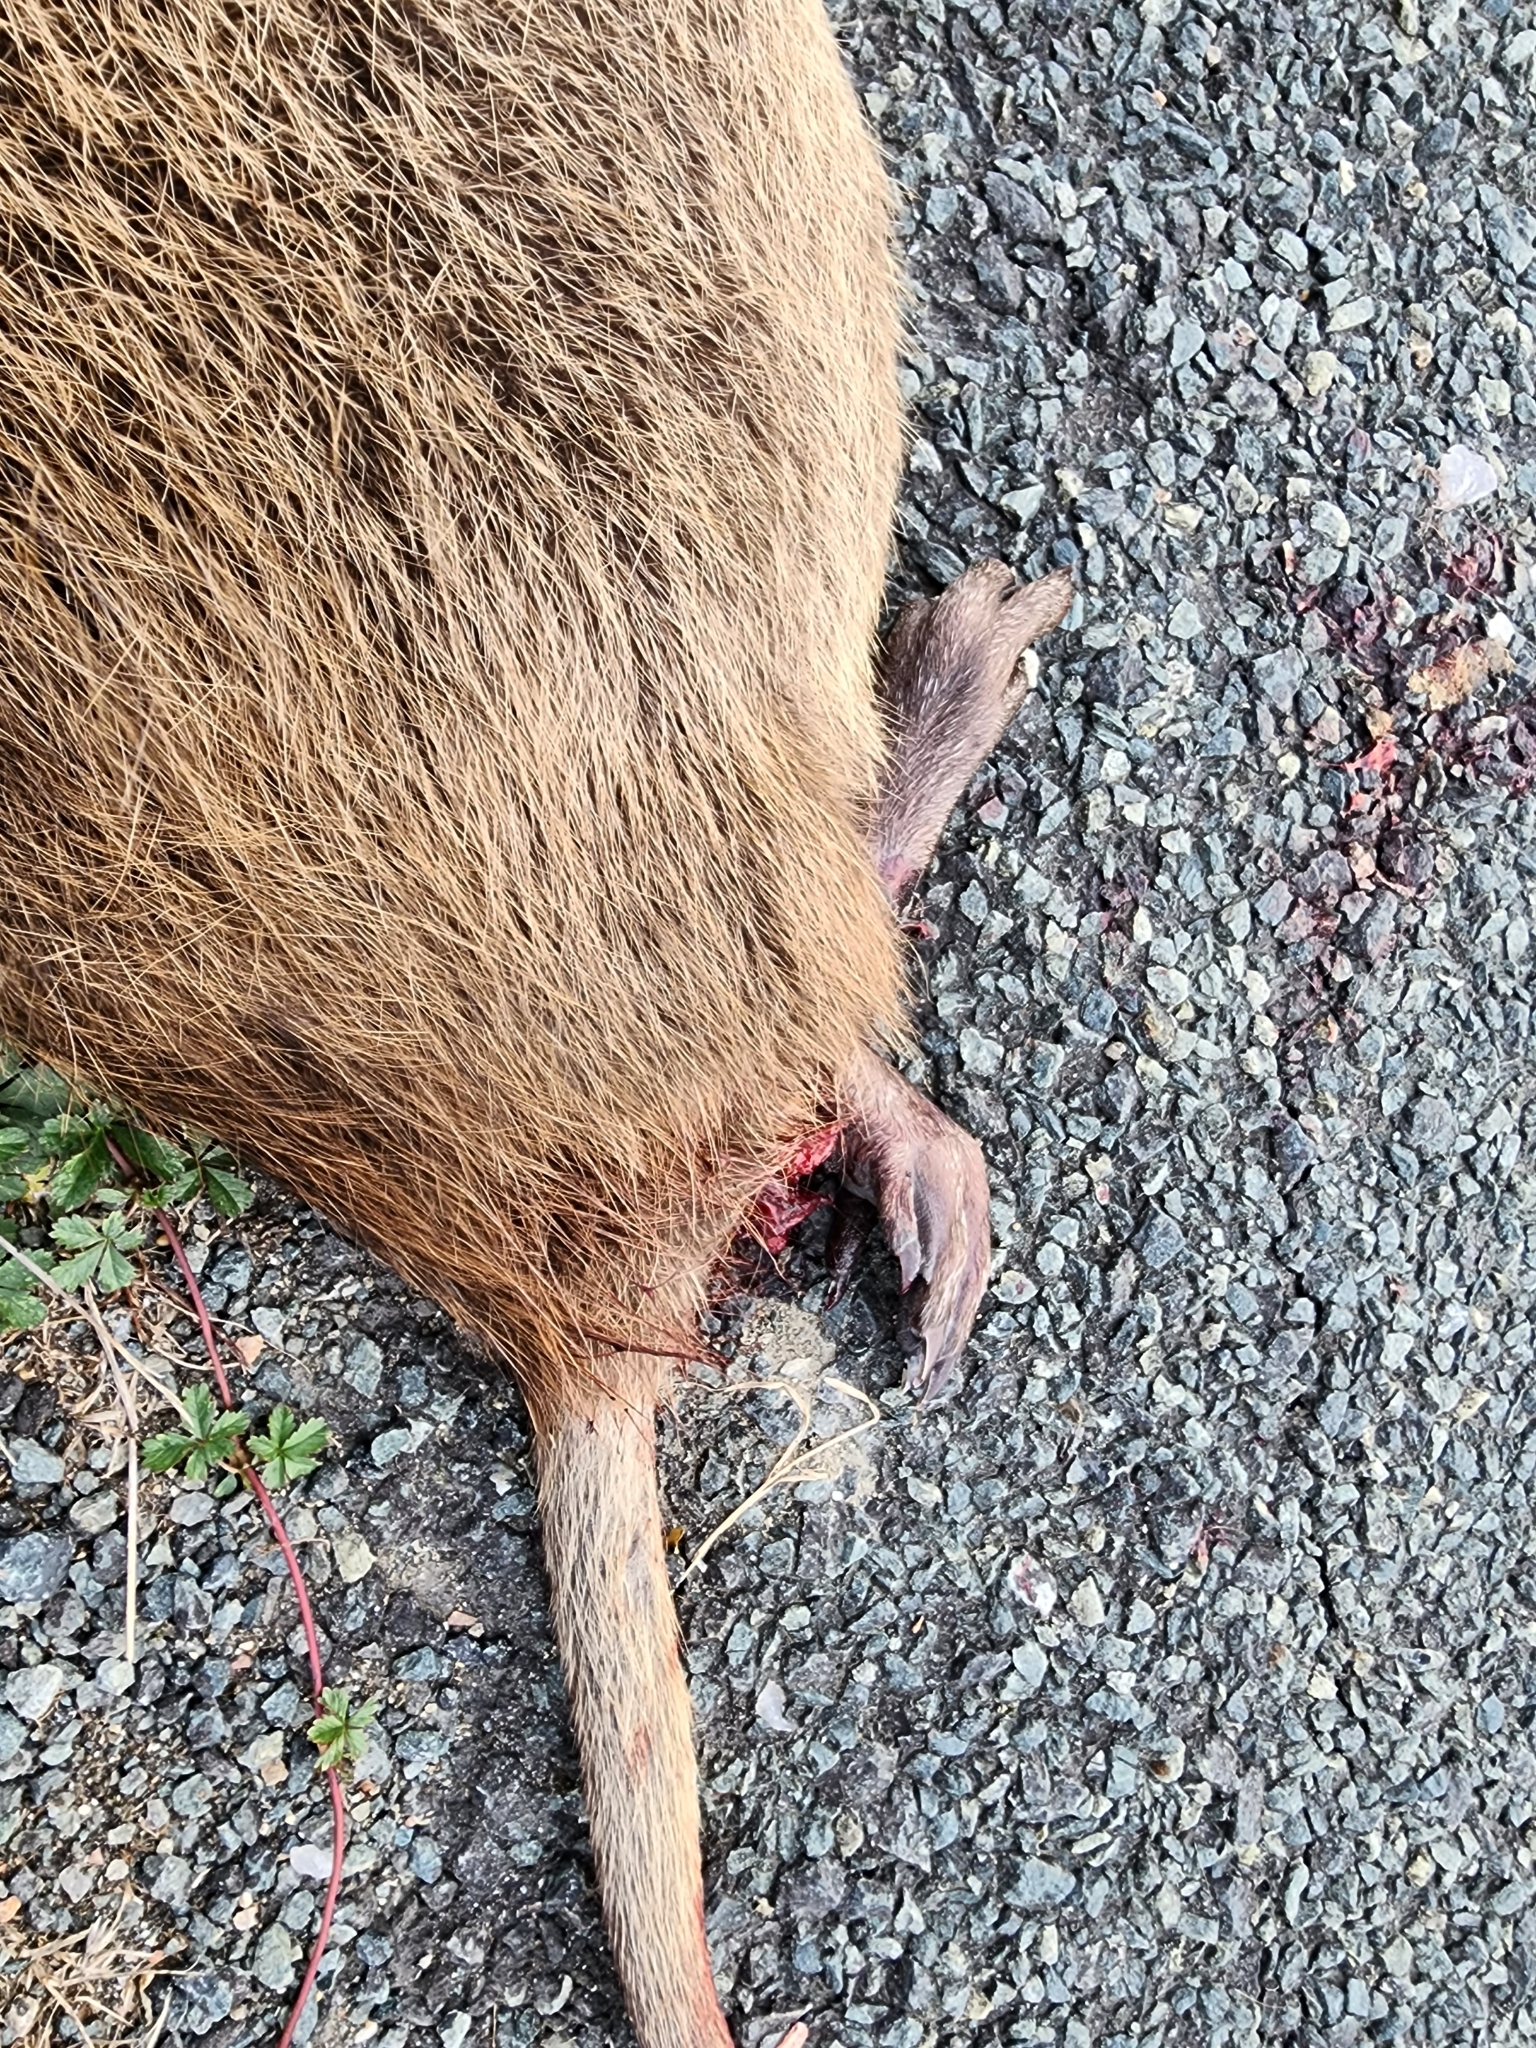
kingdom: Animalia
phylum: Chordata
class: Mammalia
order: Rodentia
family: Myocastoridae
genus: Myocastor
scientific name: Myocastor coypus
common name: Coypu
